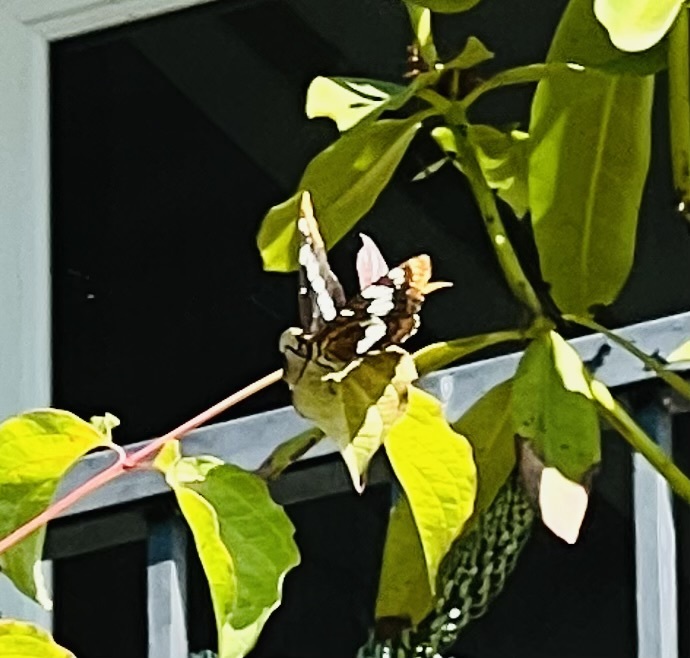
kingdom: Animalia
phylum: Arthropoda
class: Insecta
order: Lepidoptera
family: Nymphalidae
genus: Limenitis
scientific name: Limenitis lorquini
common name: Lorquin's admiral
